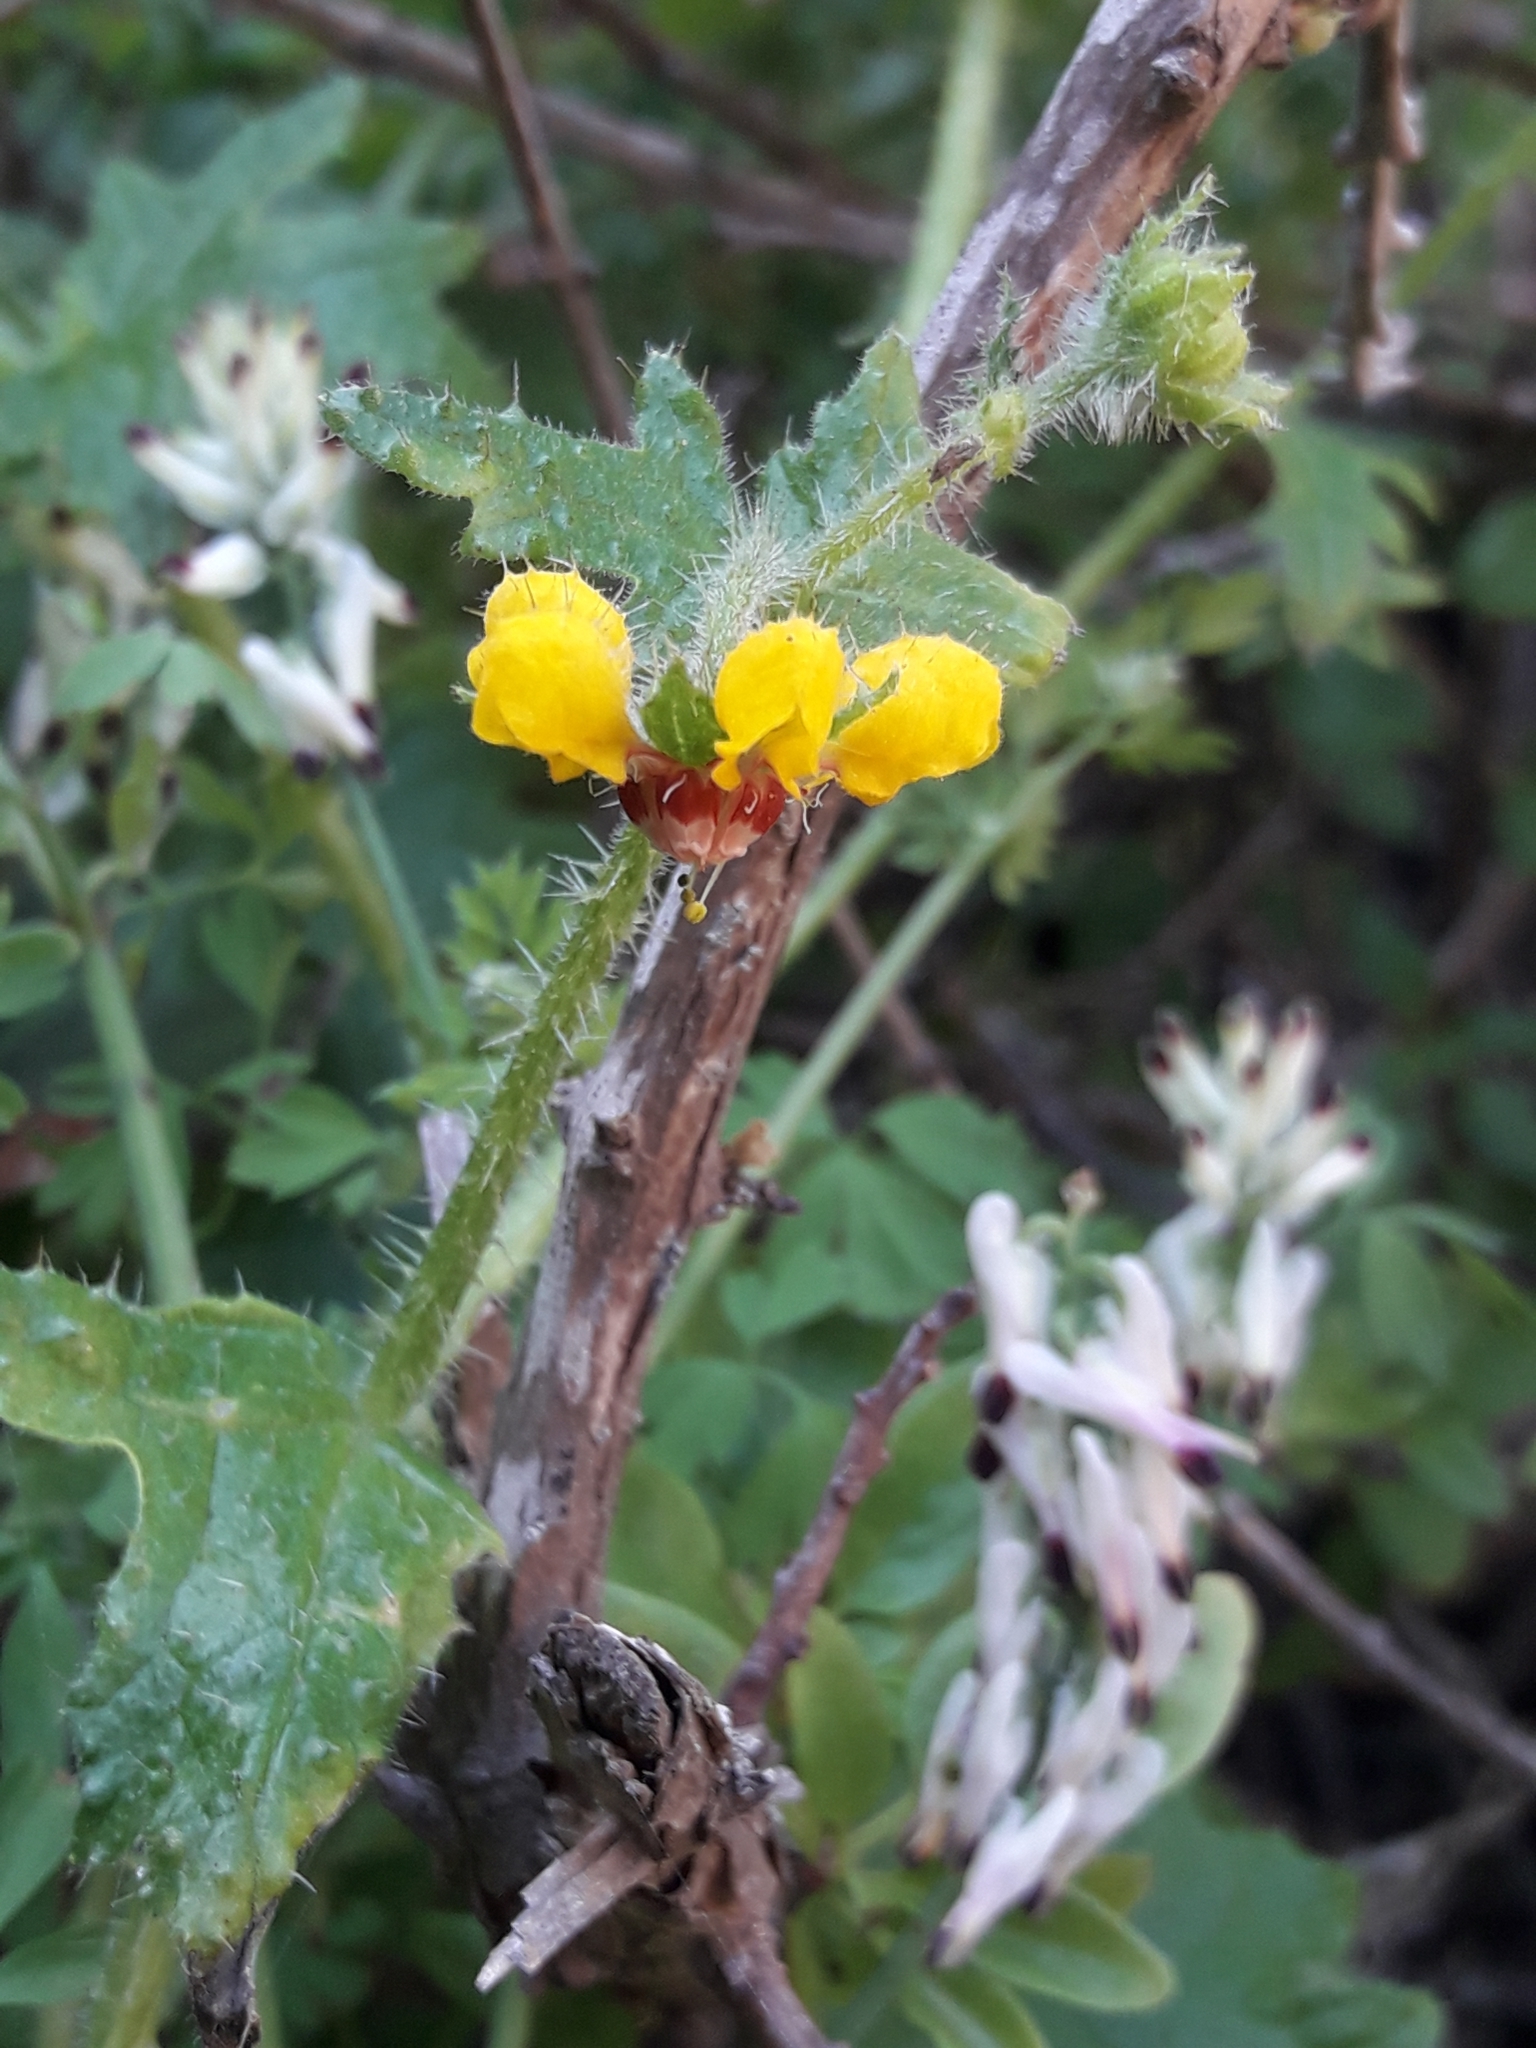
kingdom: Plantae
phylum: Tracheophyta
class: Magnoliopsida
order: Cornales
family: Loasaceae
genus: Loasa
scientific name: Loasa tricolor
